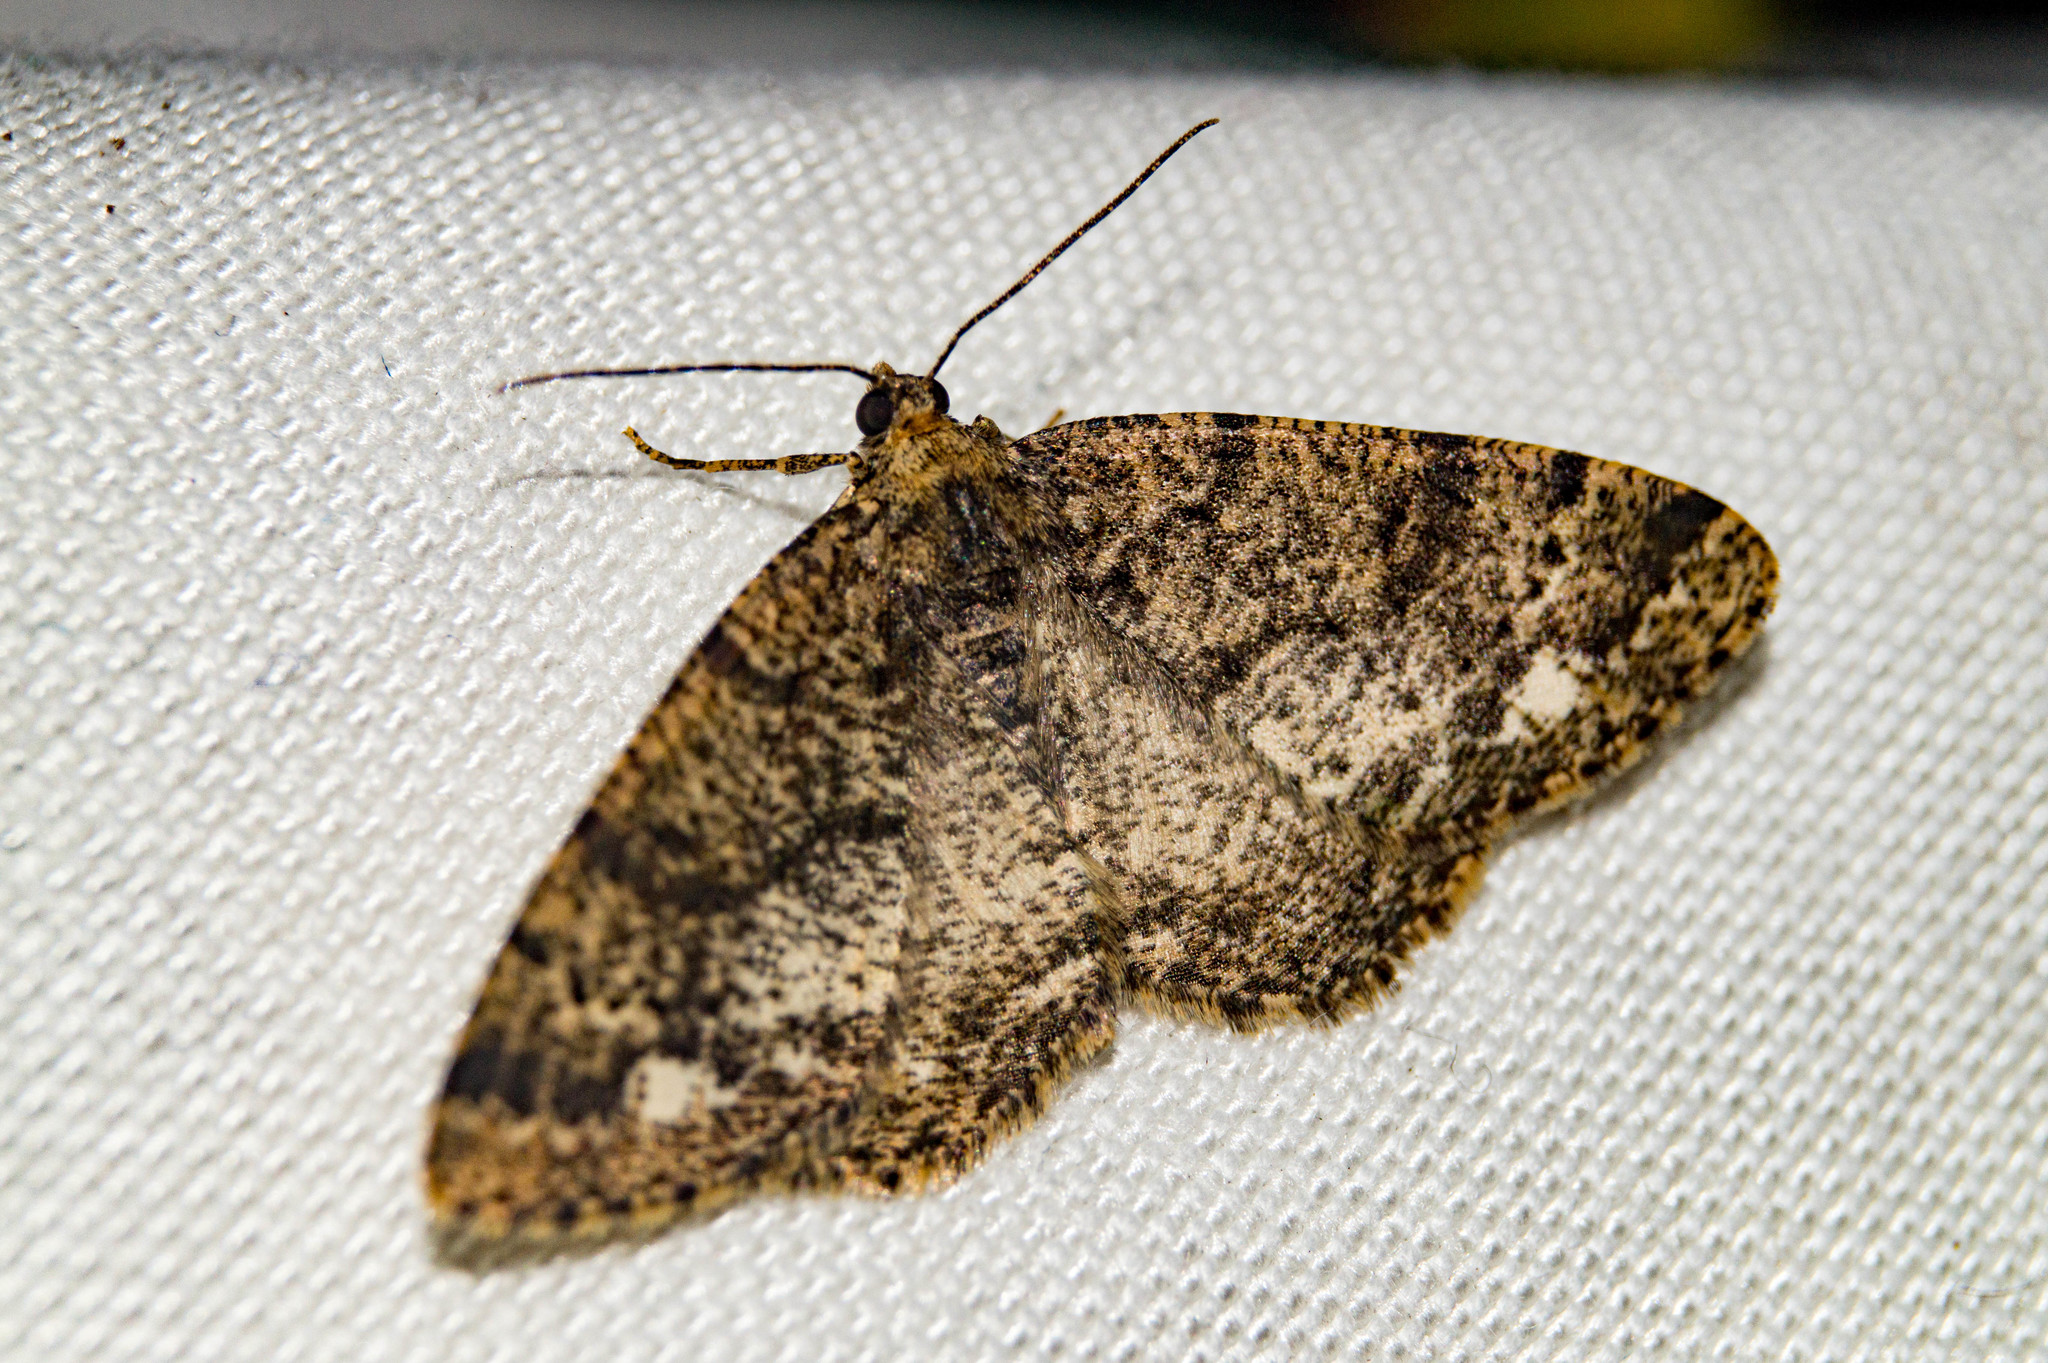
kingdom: Animalia
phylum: Arthropoda
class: Insecta
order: Lepidoptera
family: Geometridae
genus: Parectropis
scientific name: Parectropis similaria
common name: Brindled white-spot
